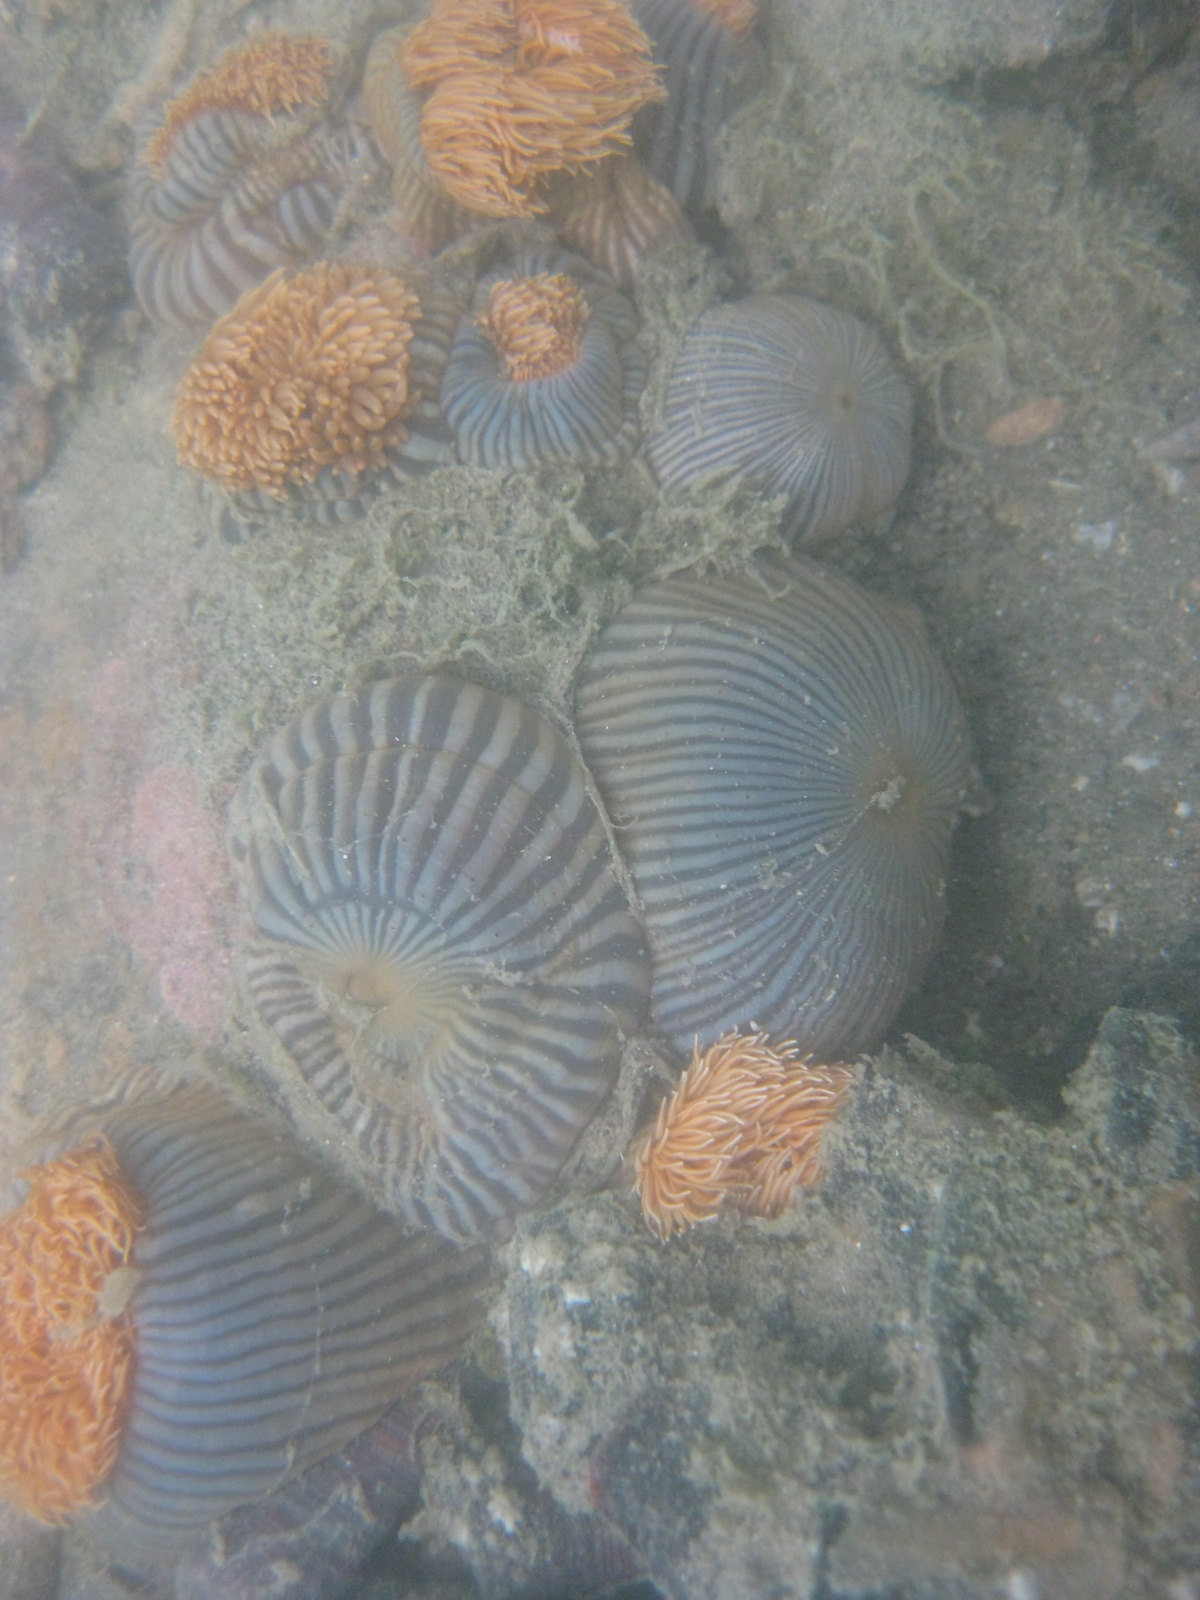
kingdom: Animalia
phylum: Cnidaria
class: Anthozoa
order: Actiniaria
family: Diadumenidae
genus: Diadumene
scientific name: Diadumene neozelanica
